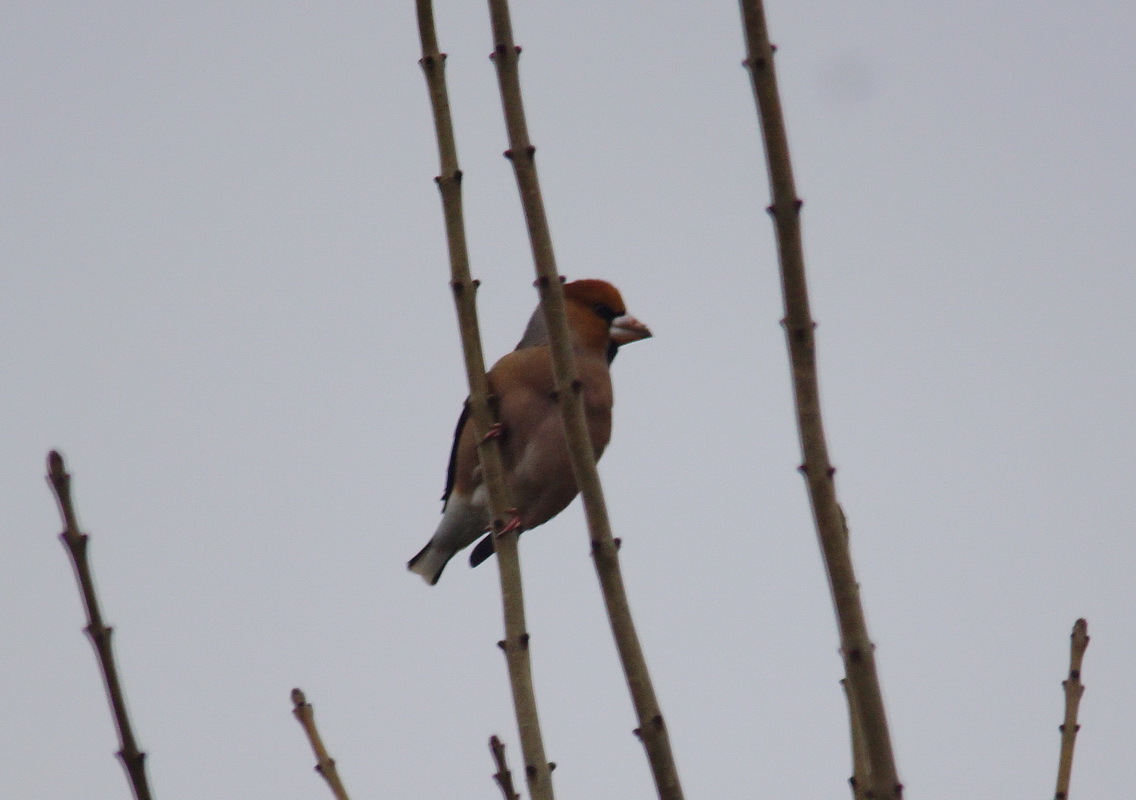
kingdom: Animalia
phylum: Chordata
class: Aves
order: Passeriformes
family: Fringillidae
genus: Coccothraustes
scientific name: Coccothraustes coccothraustes
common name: Hawfinch
